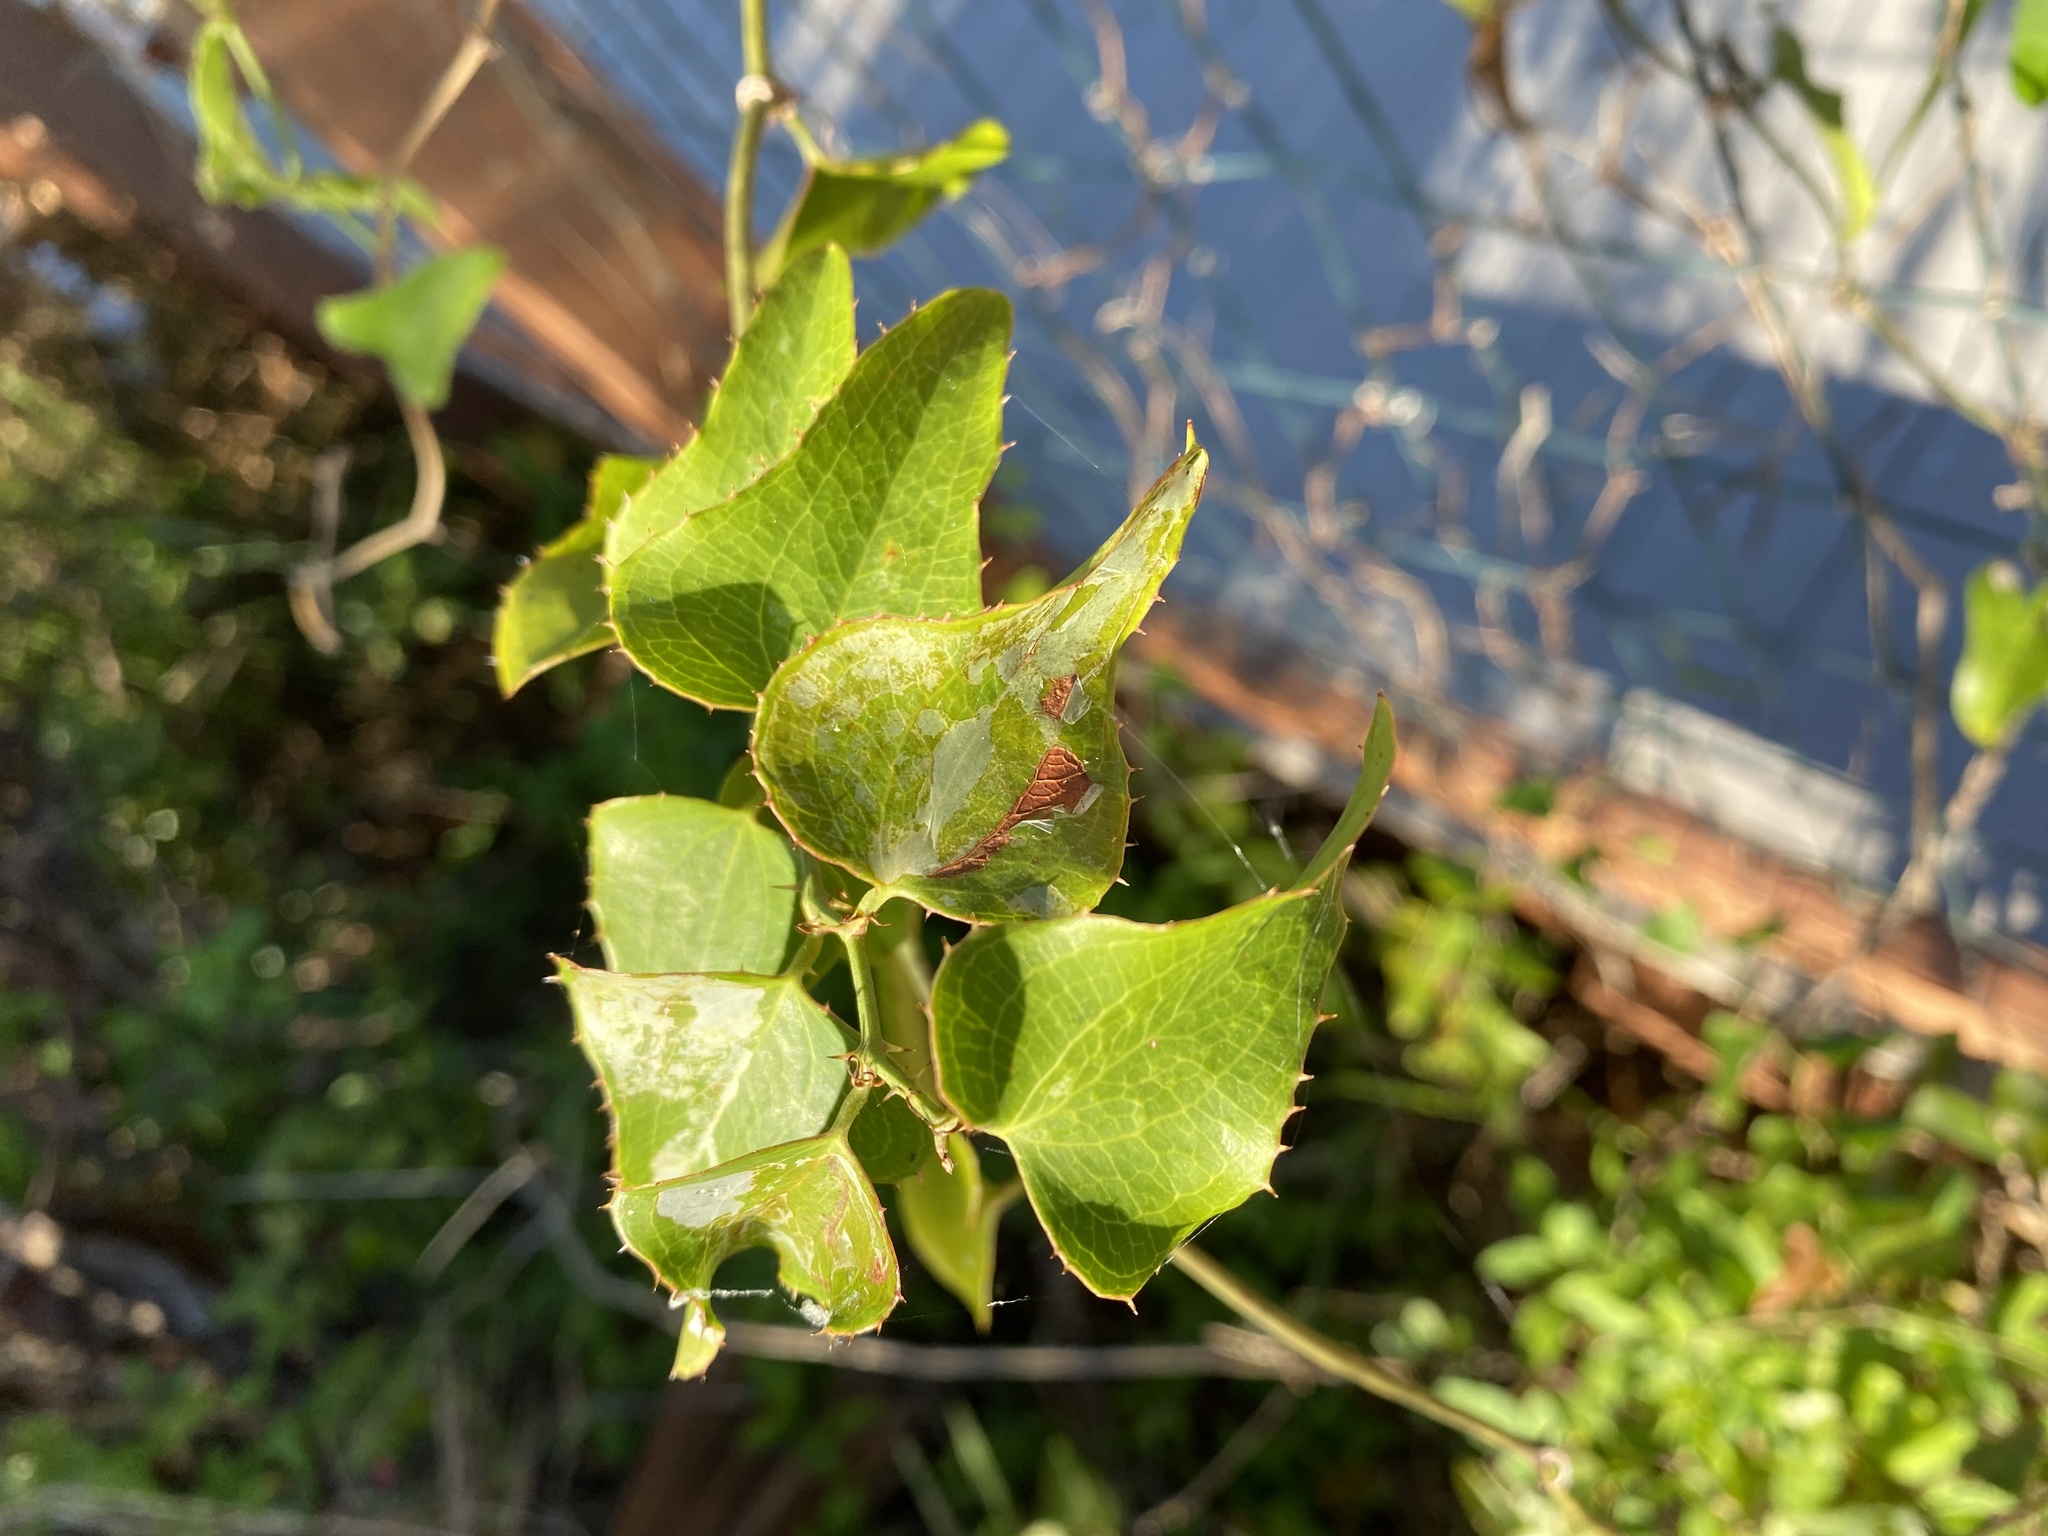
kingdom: Plantae
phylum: Tracheophyta
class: Liliopsida
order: Liliales
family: Smilacaceae
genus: Smilax
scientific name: Smilax bona-nox
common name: Catbrier
